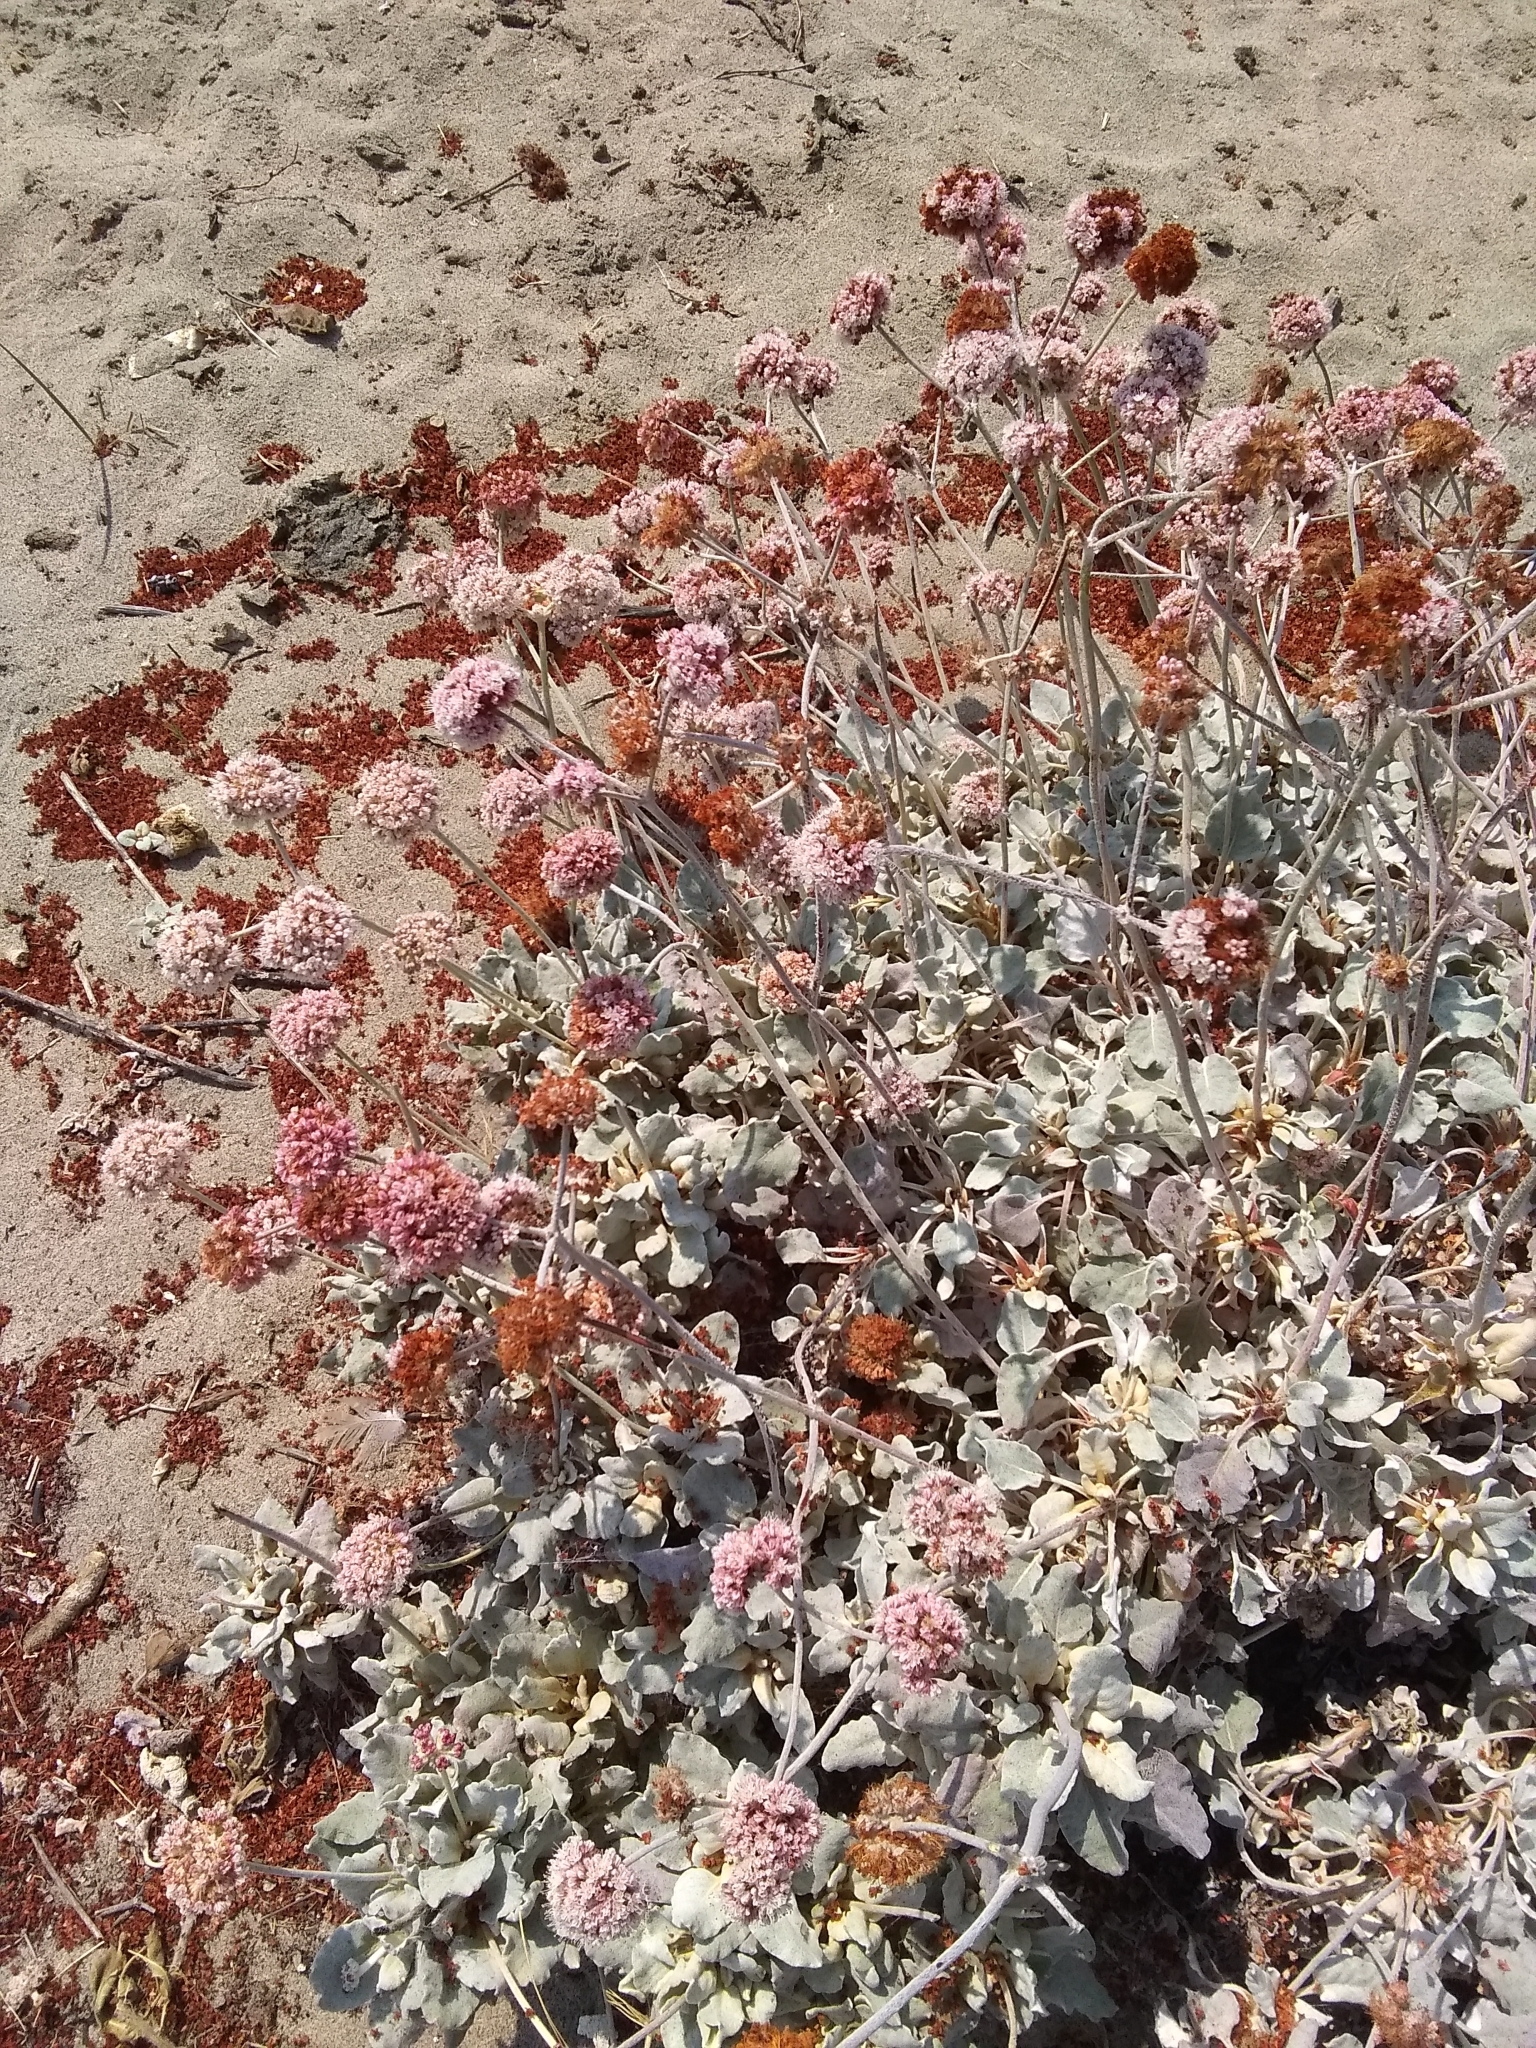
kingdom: Plantae
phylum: Tracheophyta
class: Magnoliopsida
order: Caryophyllales
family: Polygonaceae
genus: Eriogonum
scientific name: Eriogonum latifolium
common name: Seaside wild buckwheat
